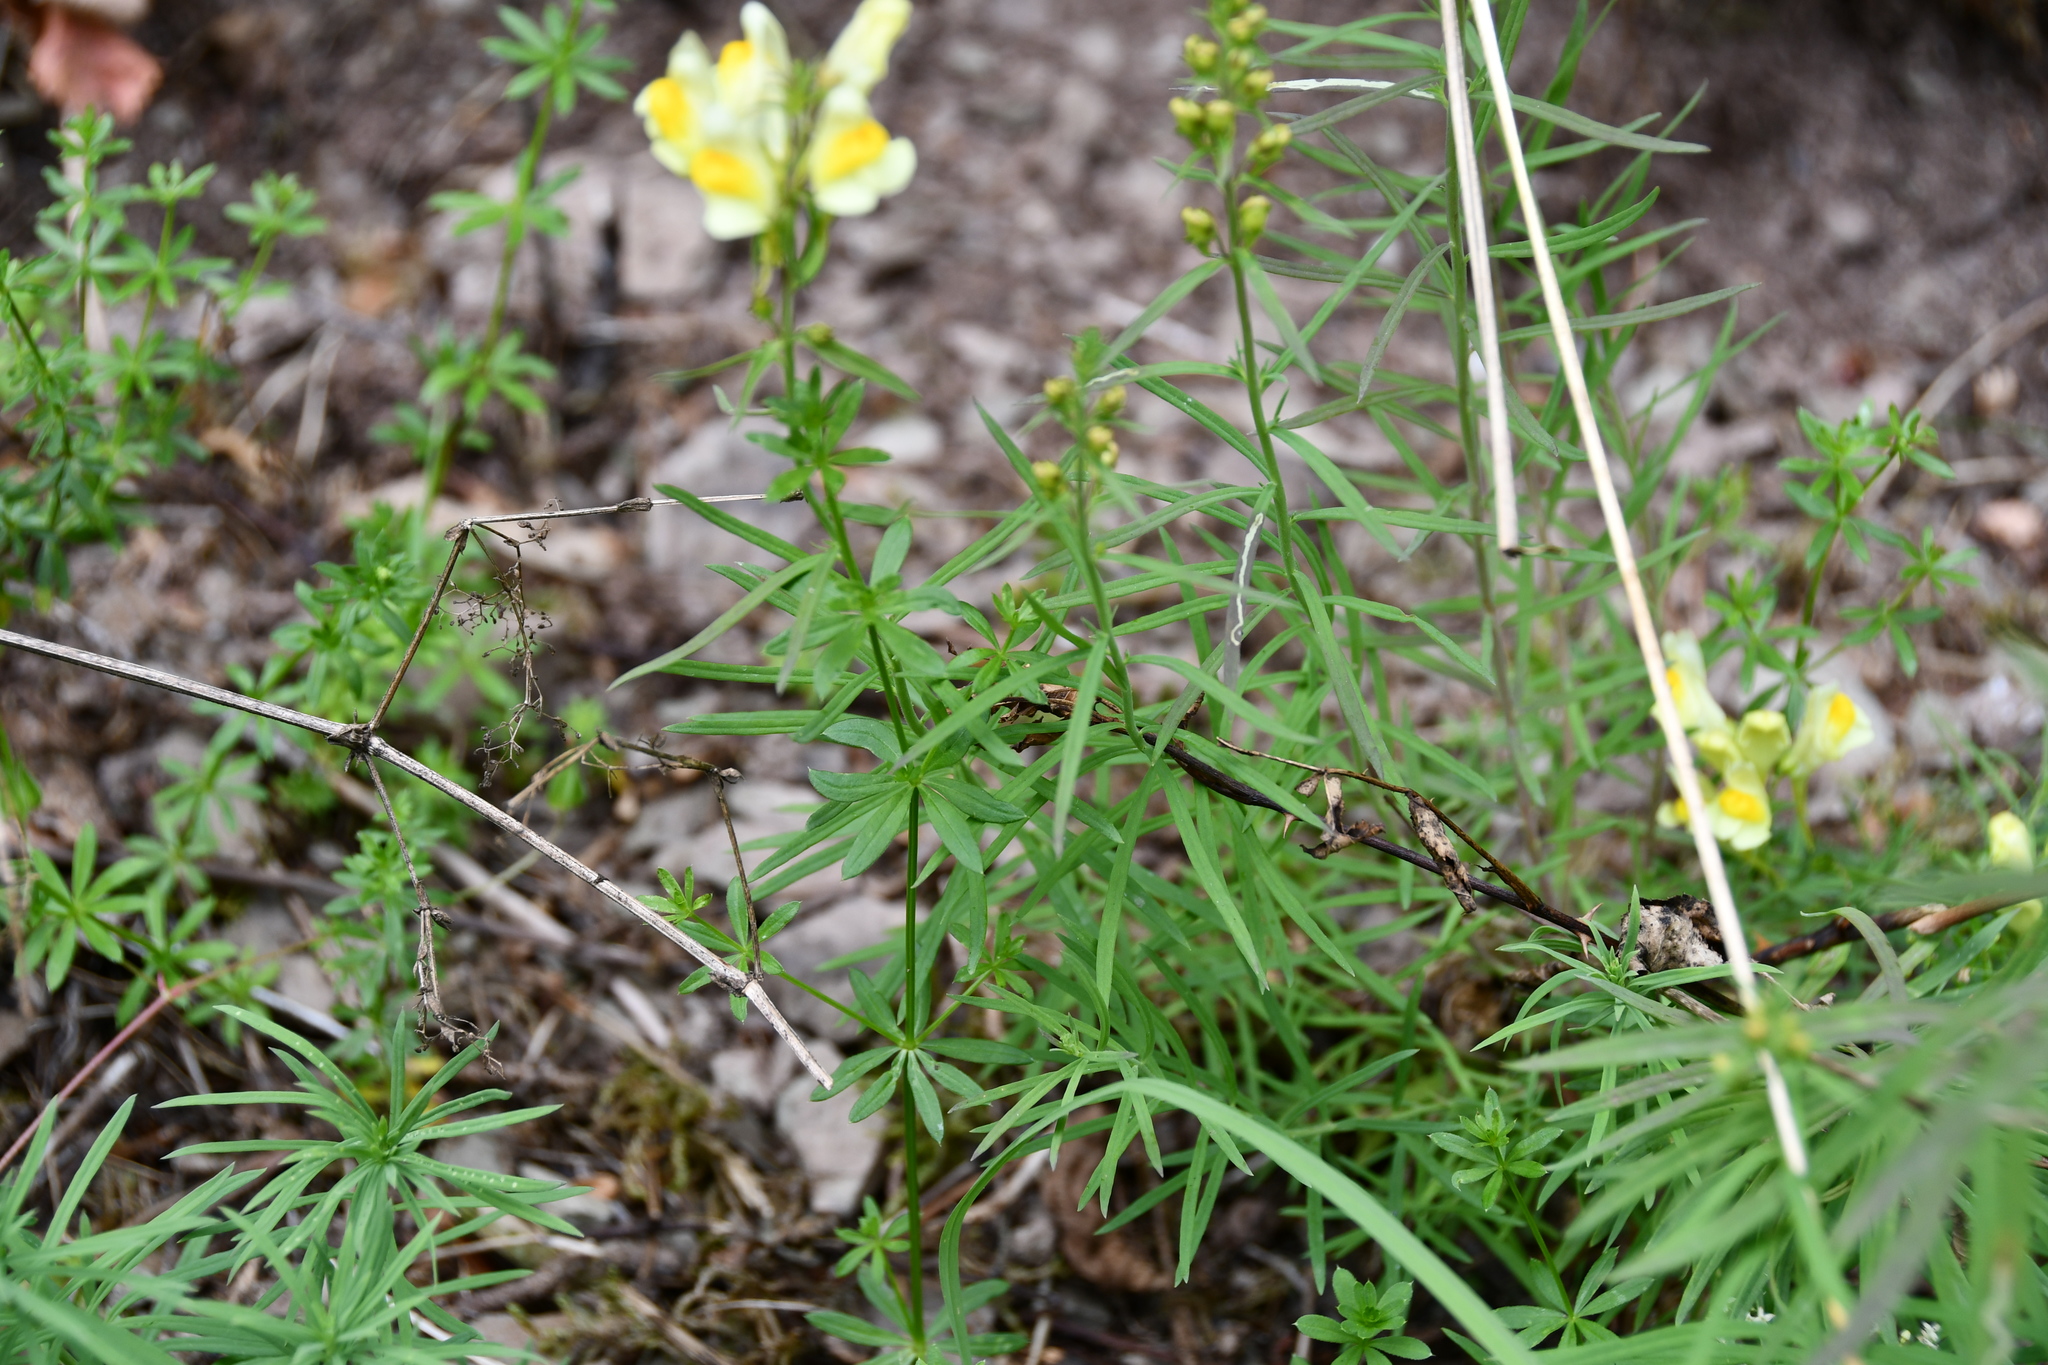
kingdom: Plantae
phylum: Tracheophyta
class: Magnoliopsida
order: Lamiales
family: Plantaginaceae
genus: Linaria
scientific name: Linaria vulgaris
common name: Butter and eggs
